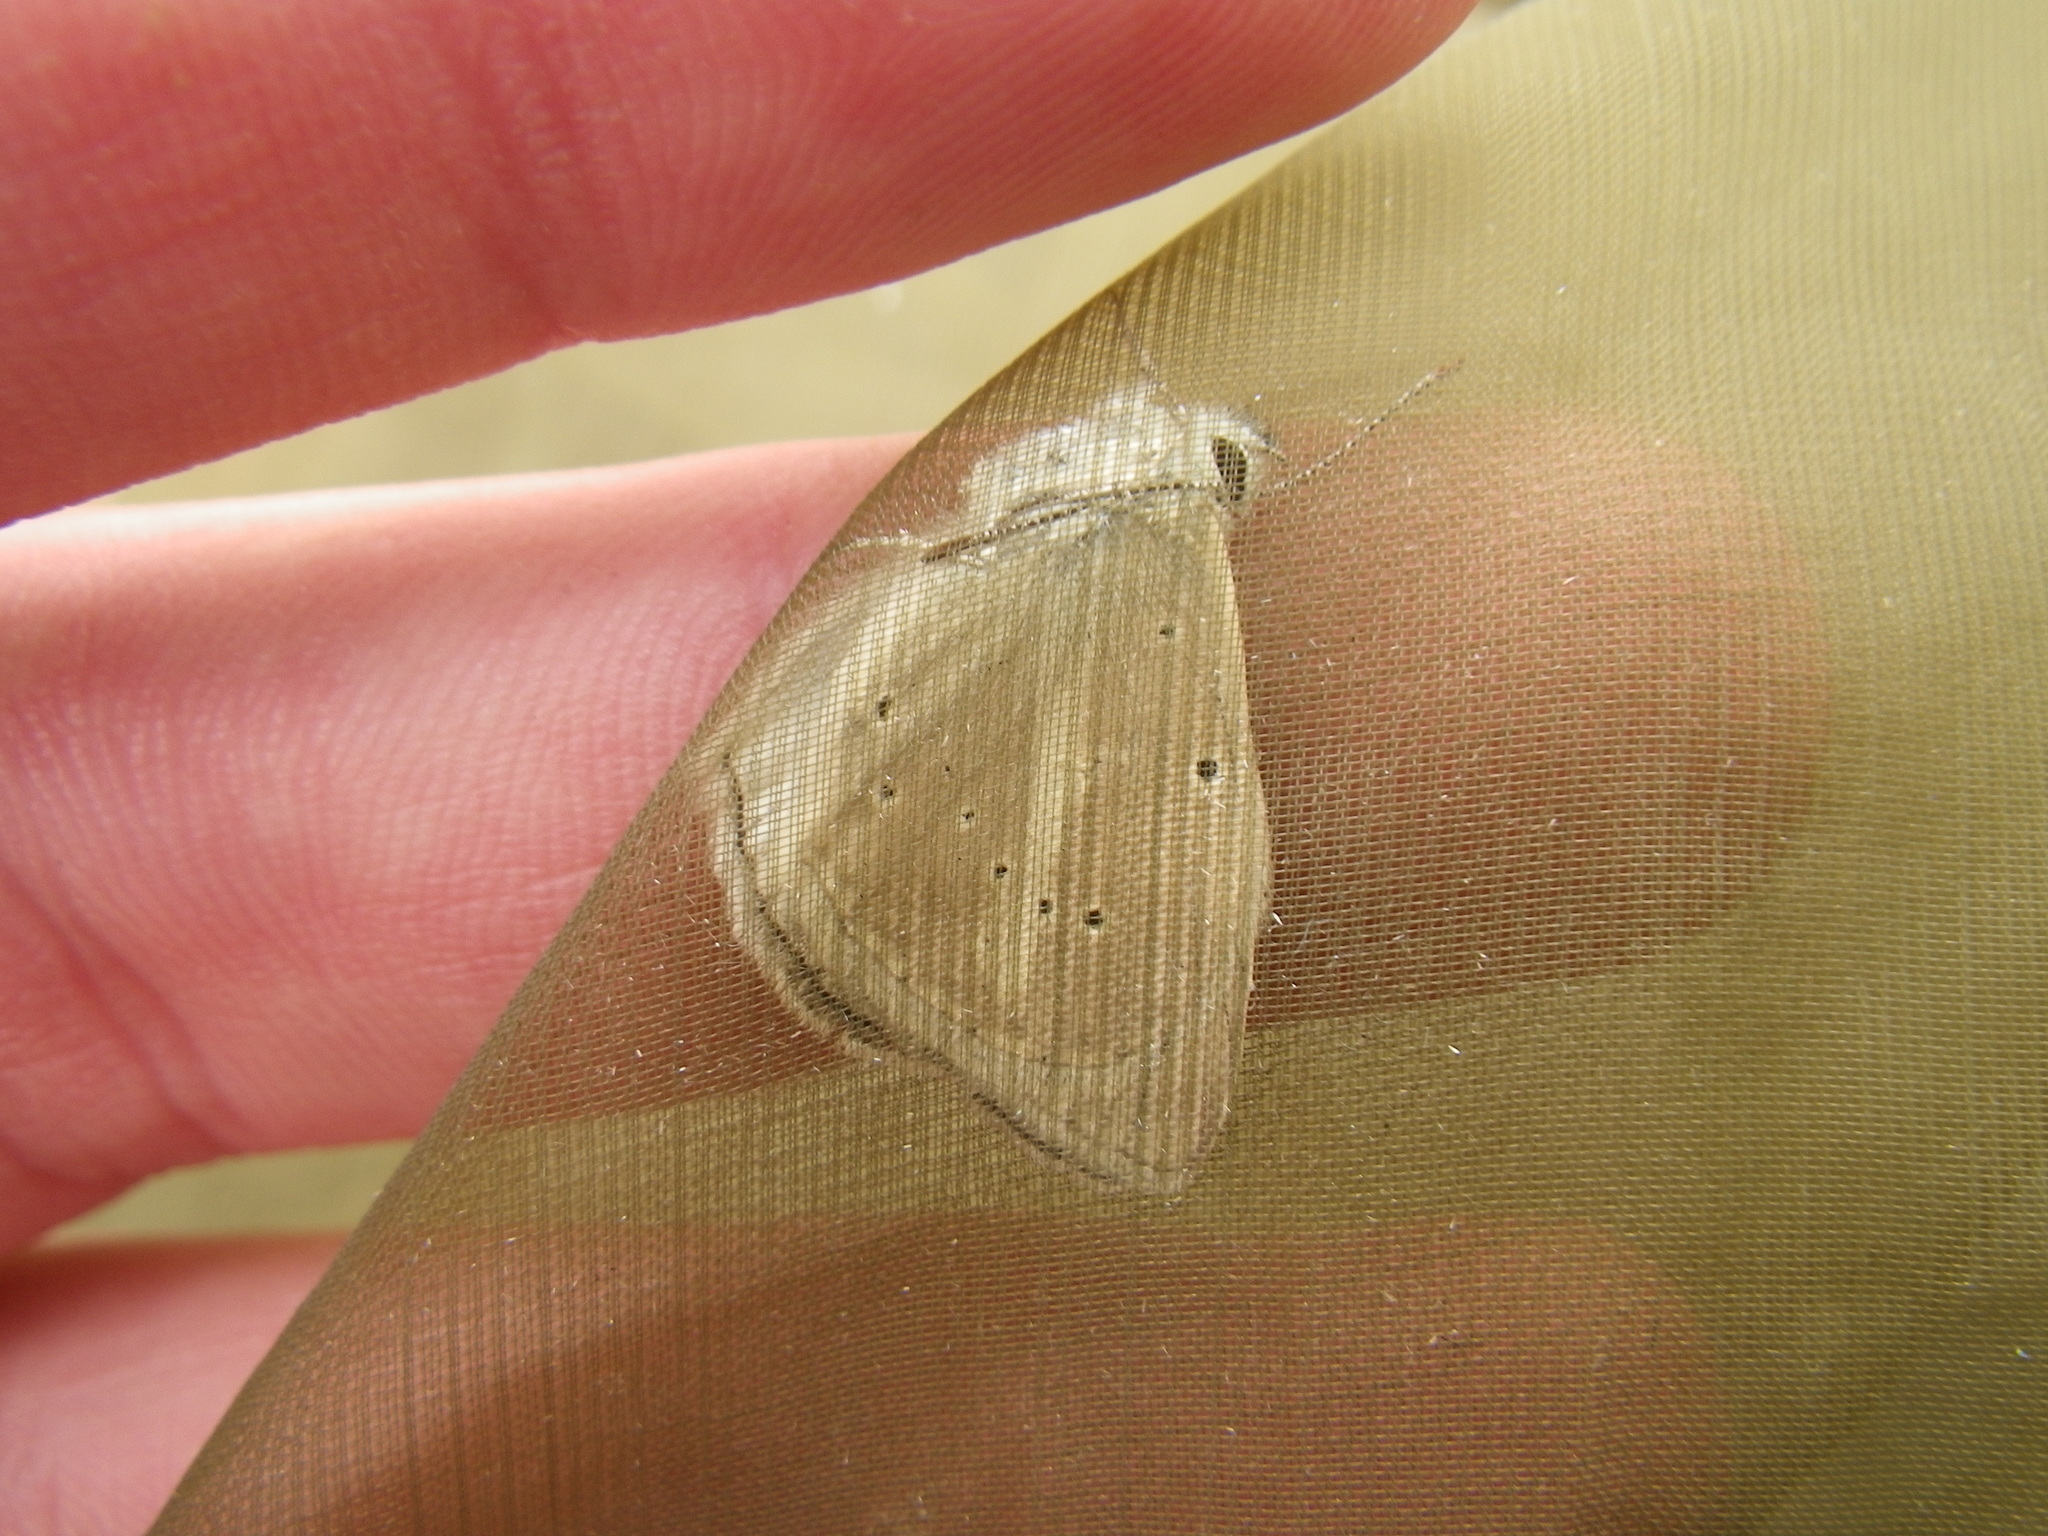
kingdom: Animalia
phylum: Arthropoda
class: Insecta
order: Lepidoptera
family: Lycaenidae
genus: Agrodiaetus
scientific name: Agrodiaetus dolus
